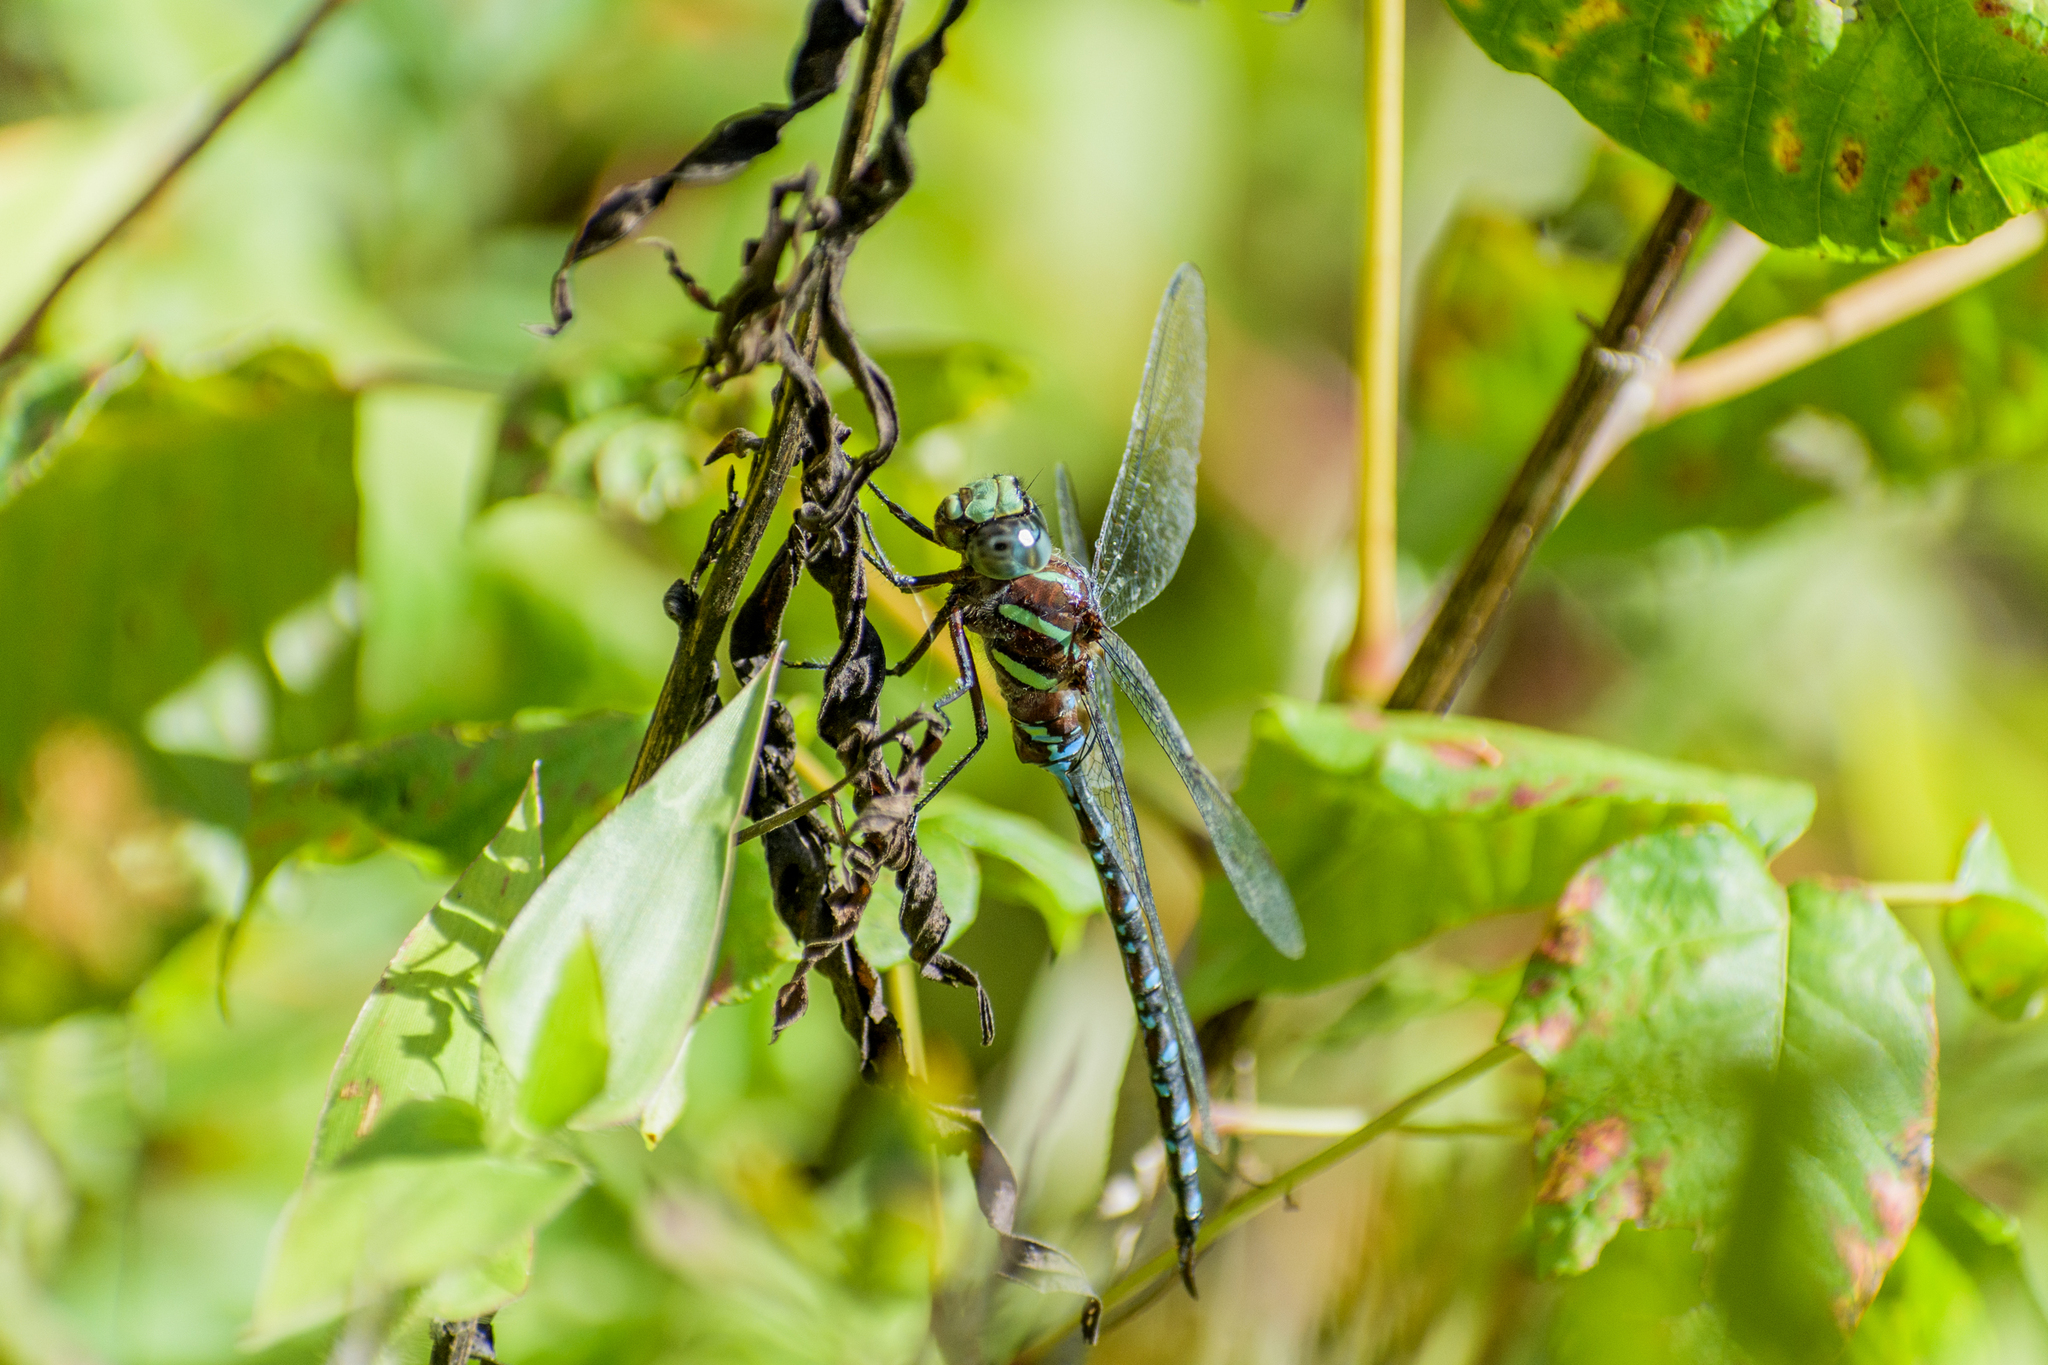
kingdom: Animalia
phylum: Arthropoda
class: Insecta
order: Odonata
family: Aeshnidae
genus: Aeshna
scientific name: Aeshna tuberculifera
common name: Aeschne à tubercules
